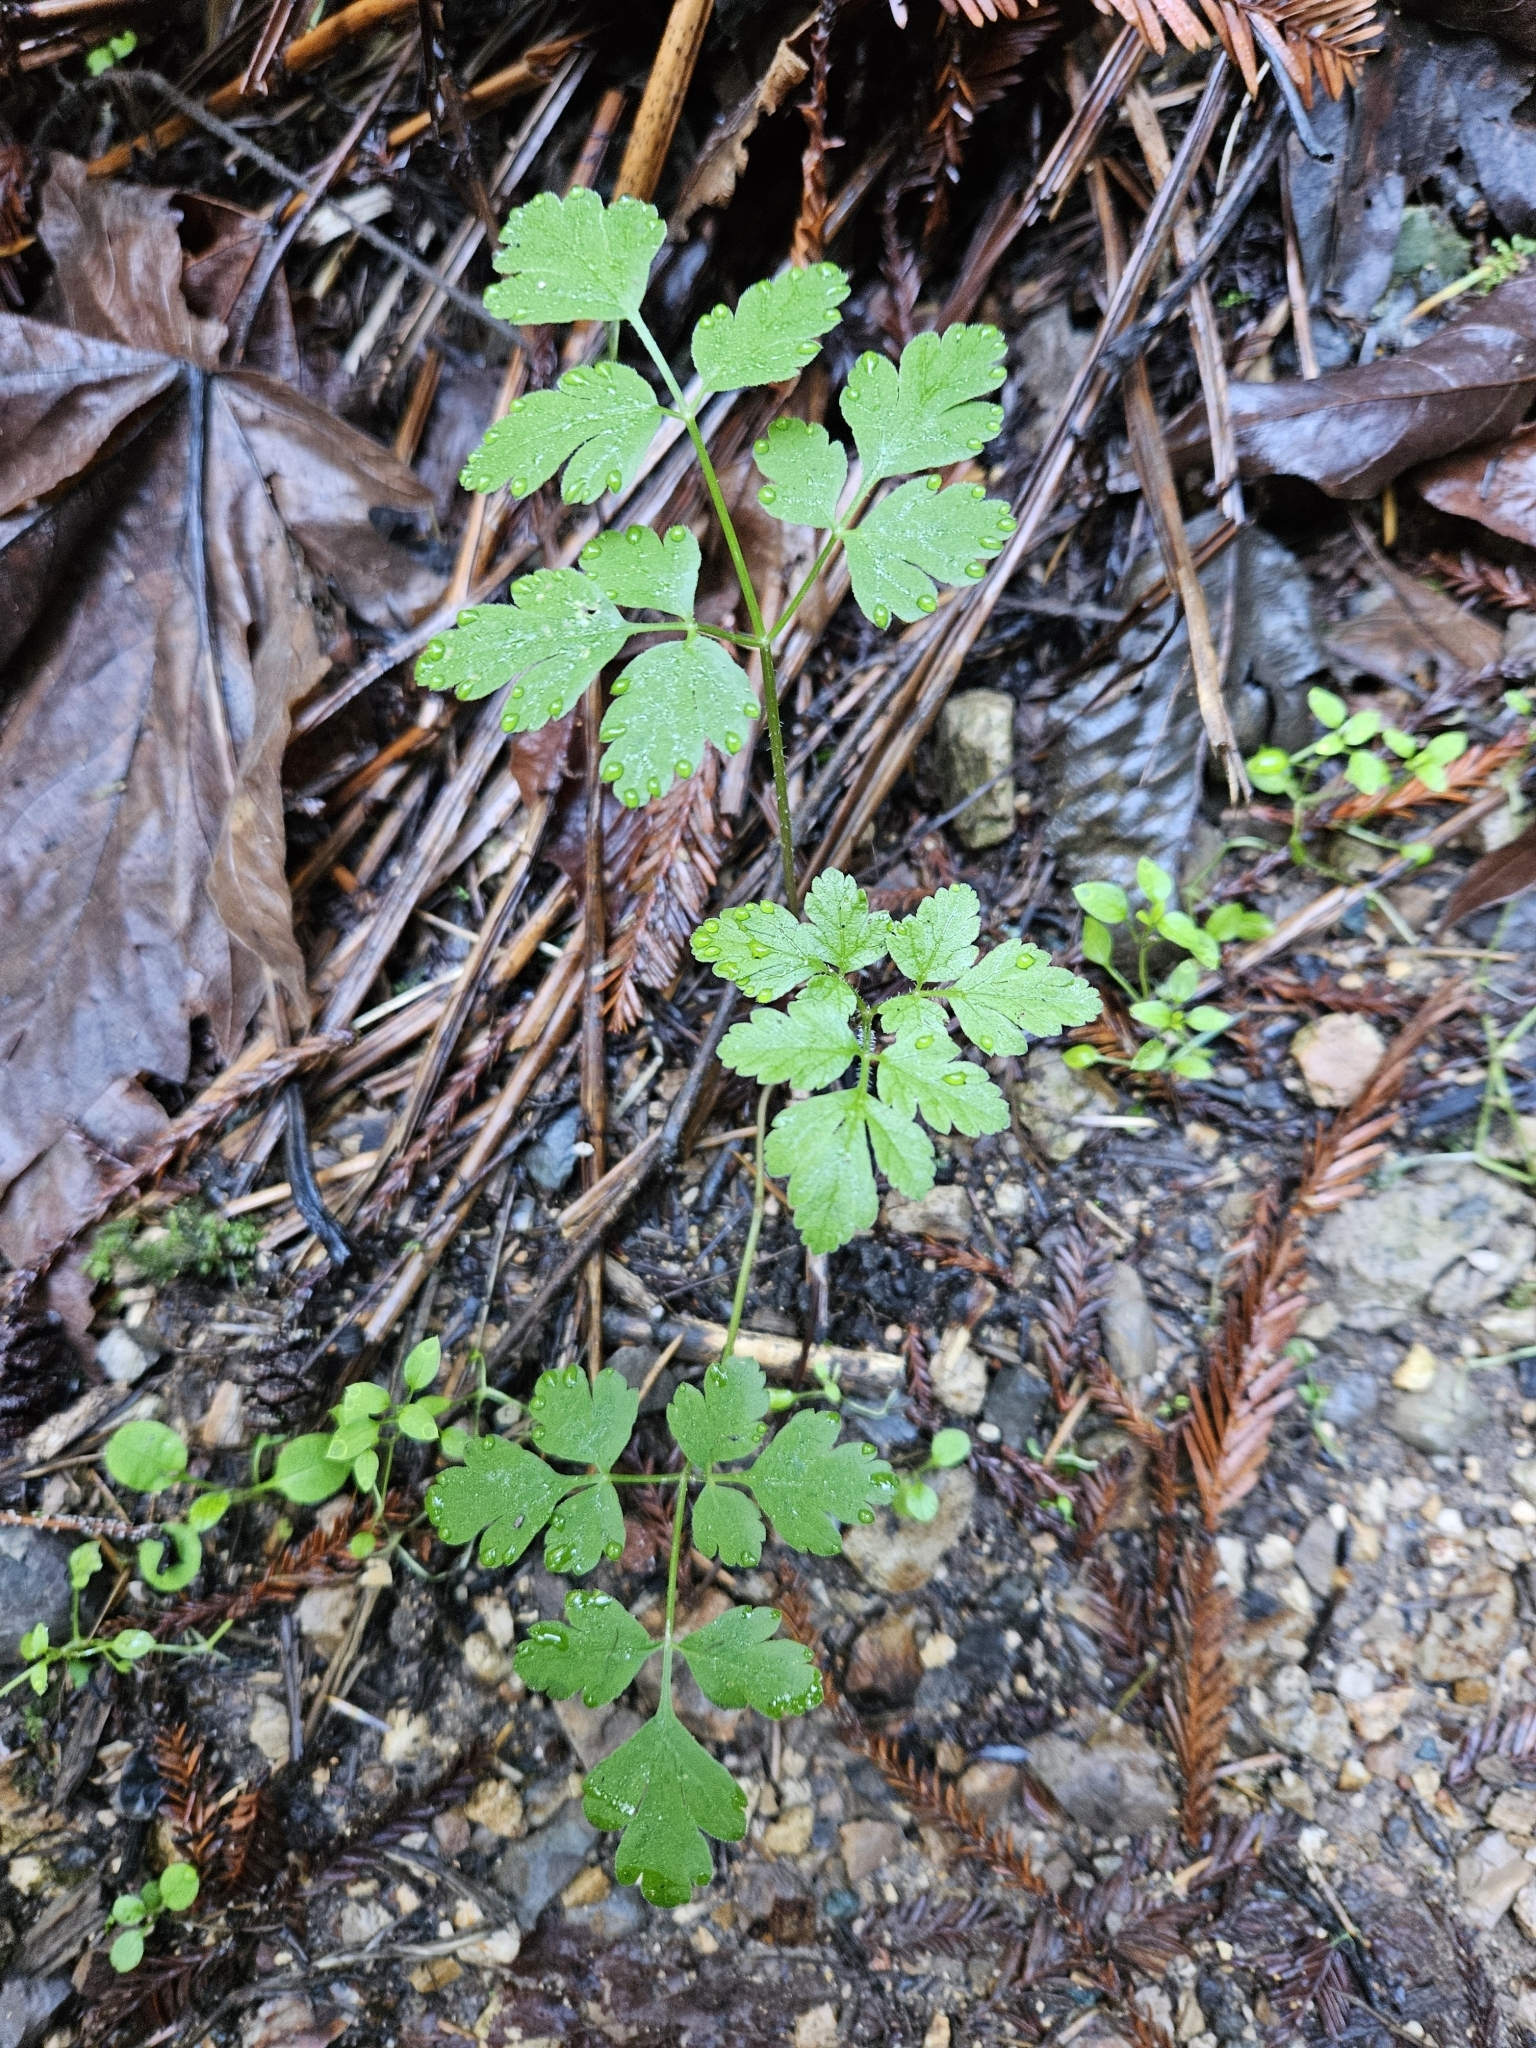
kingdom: Plantae
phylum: Tracheophyta
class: Magnoliopsida
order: Apiales
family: Apiaceae
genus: Osmorhiza
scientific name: Osmorhiza berteroi
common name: Mountain sweet cicely
